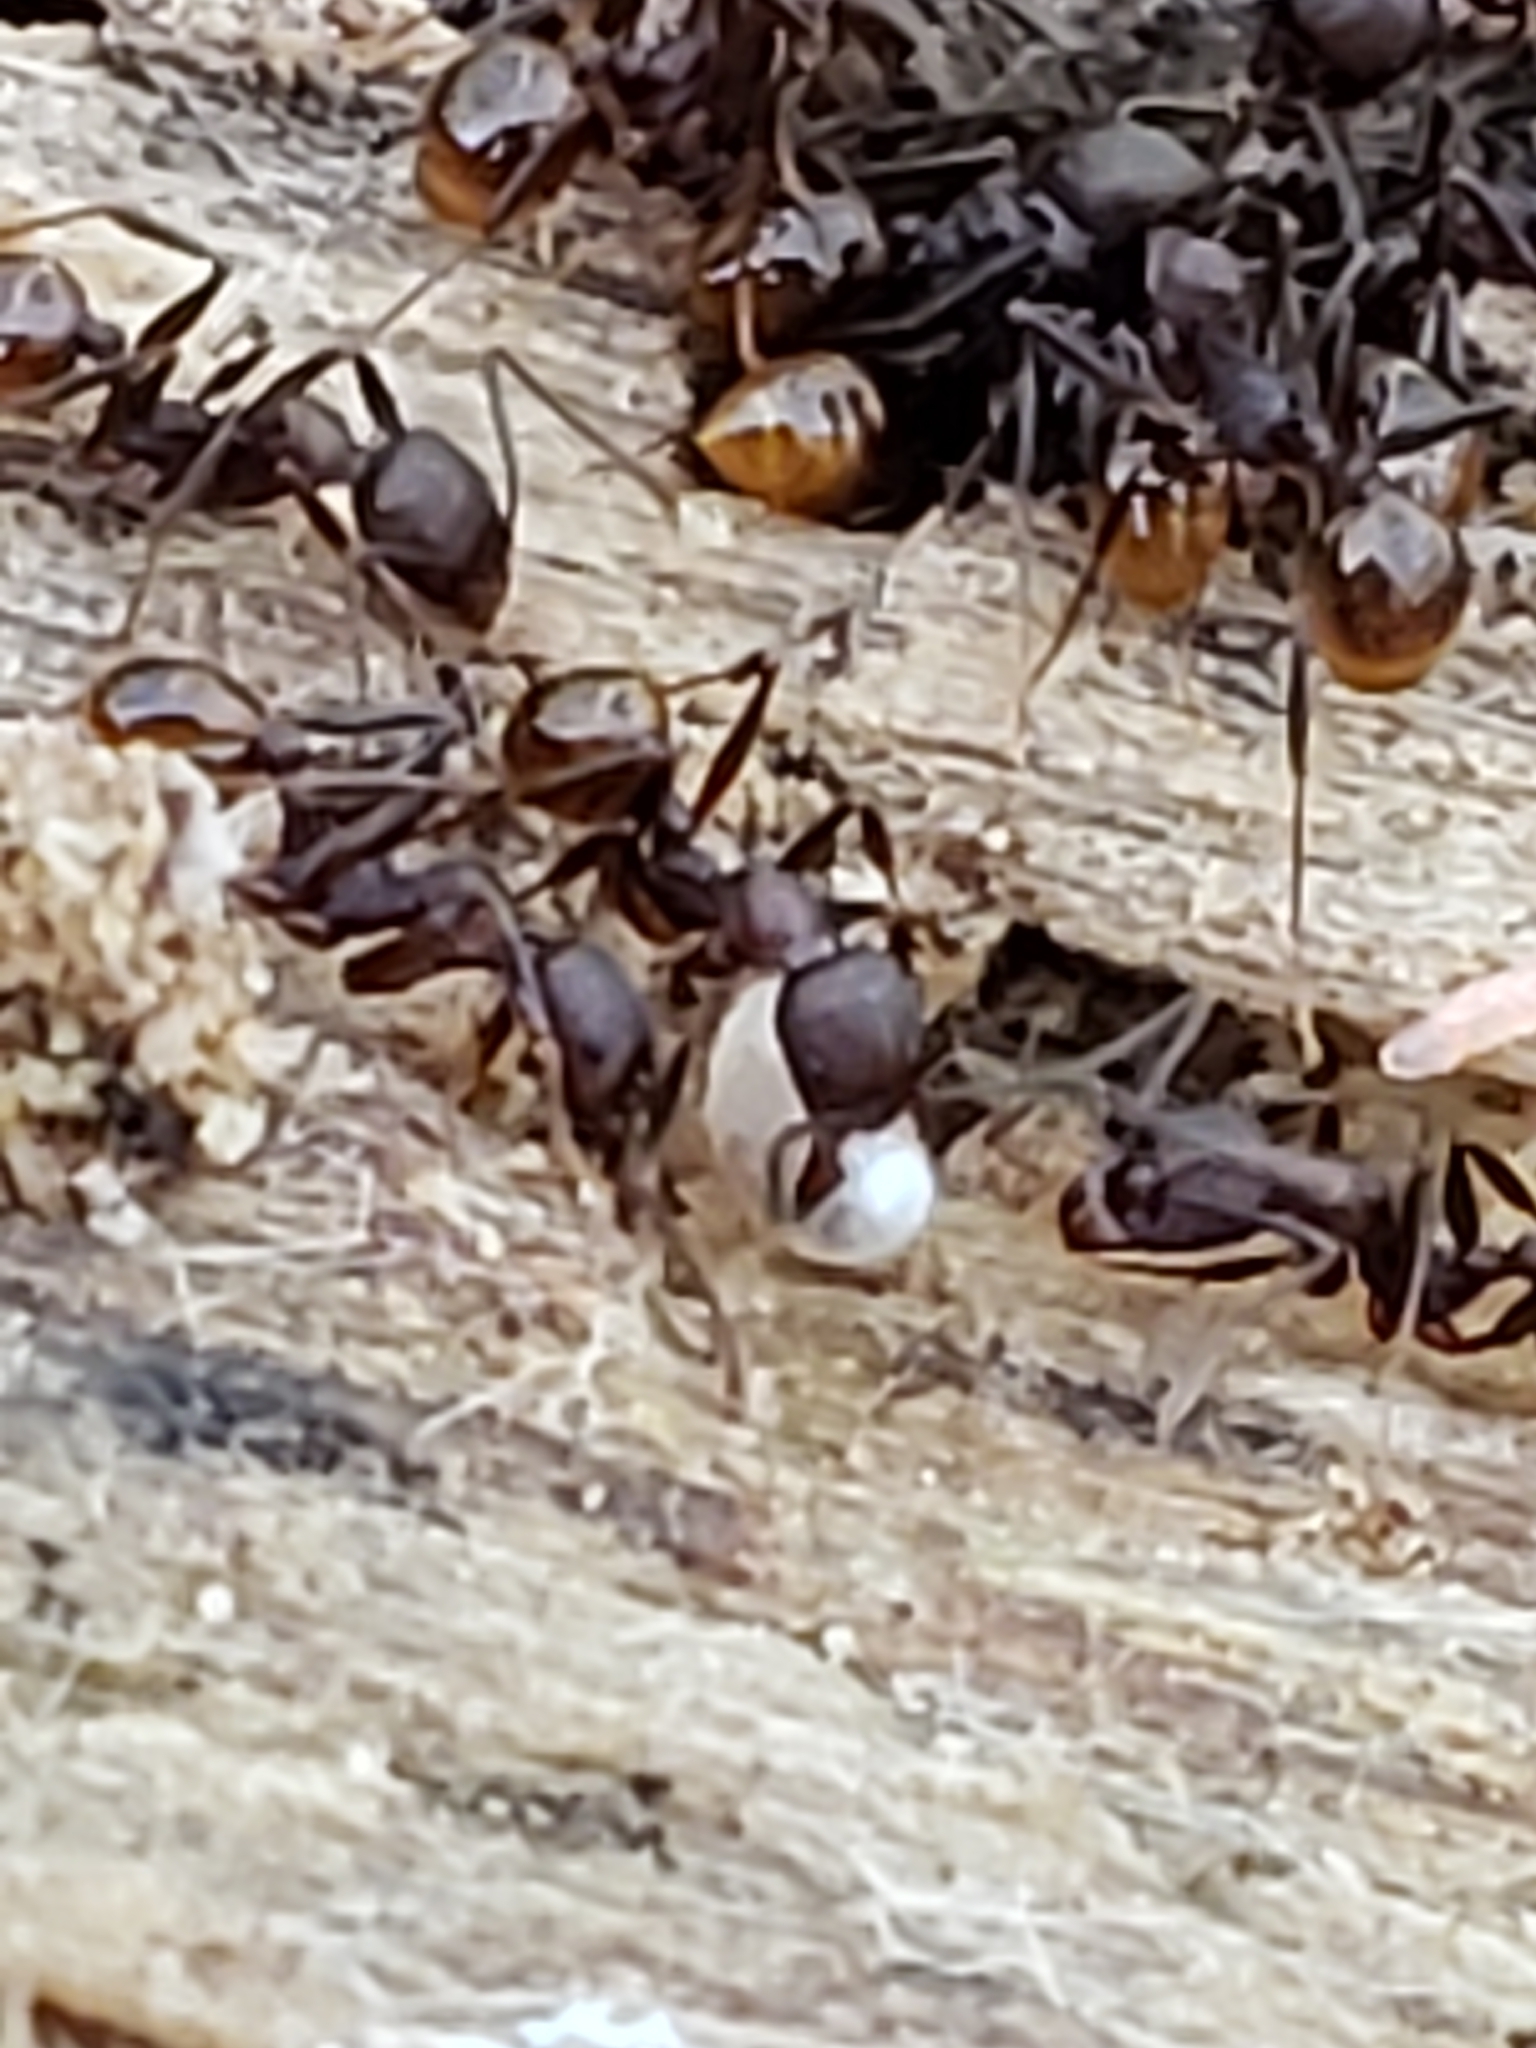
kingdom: Animalia
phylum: Arthropoda
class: Insecta
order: Hymenoptera
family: Formicidae
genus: Aphaenogaster
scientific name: Aphaenogaster fulva
